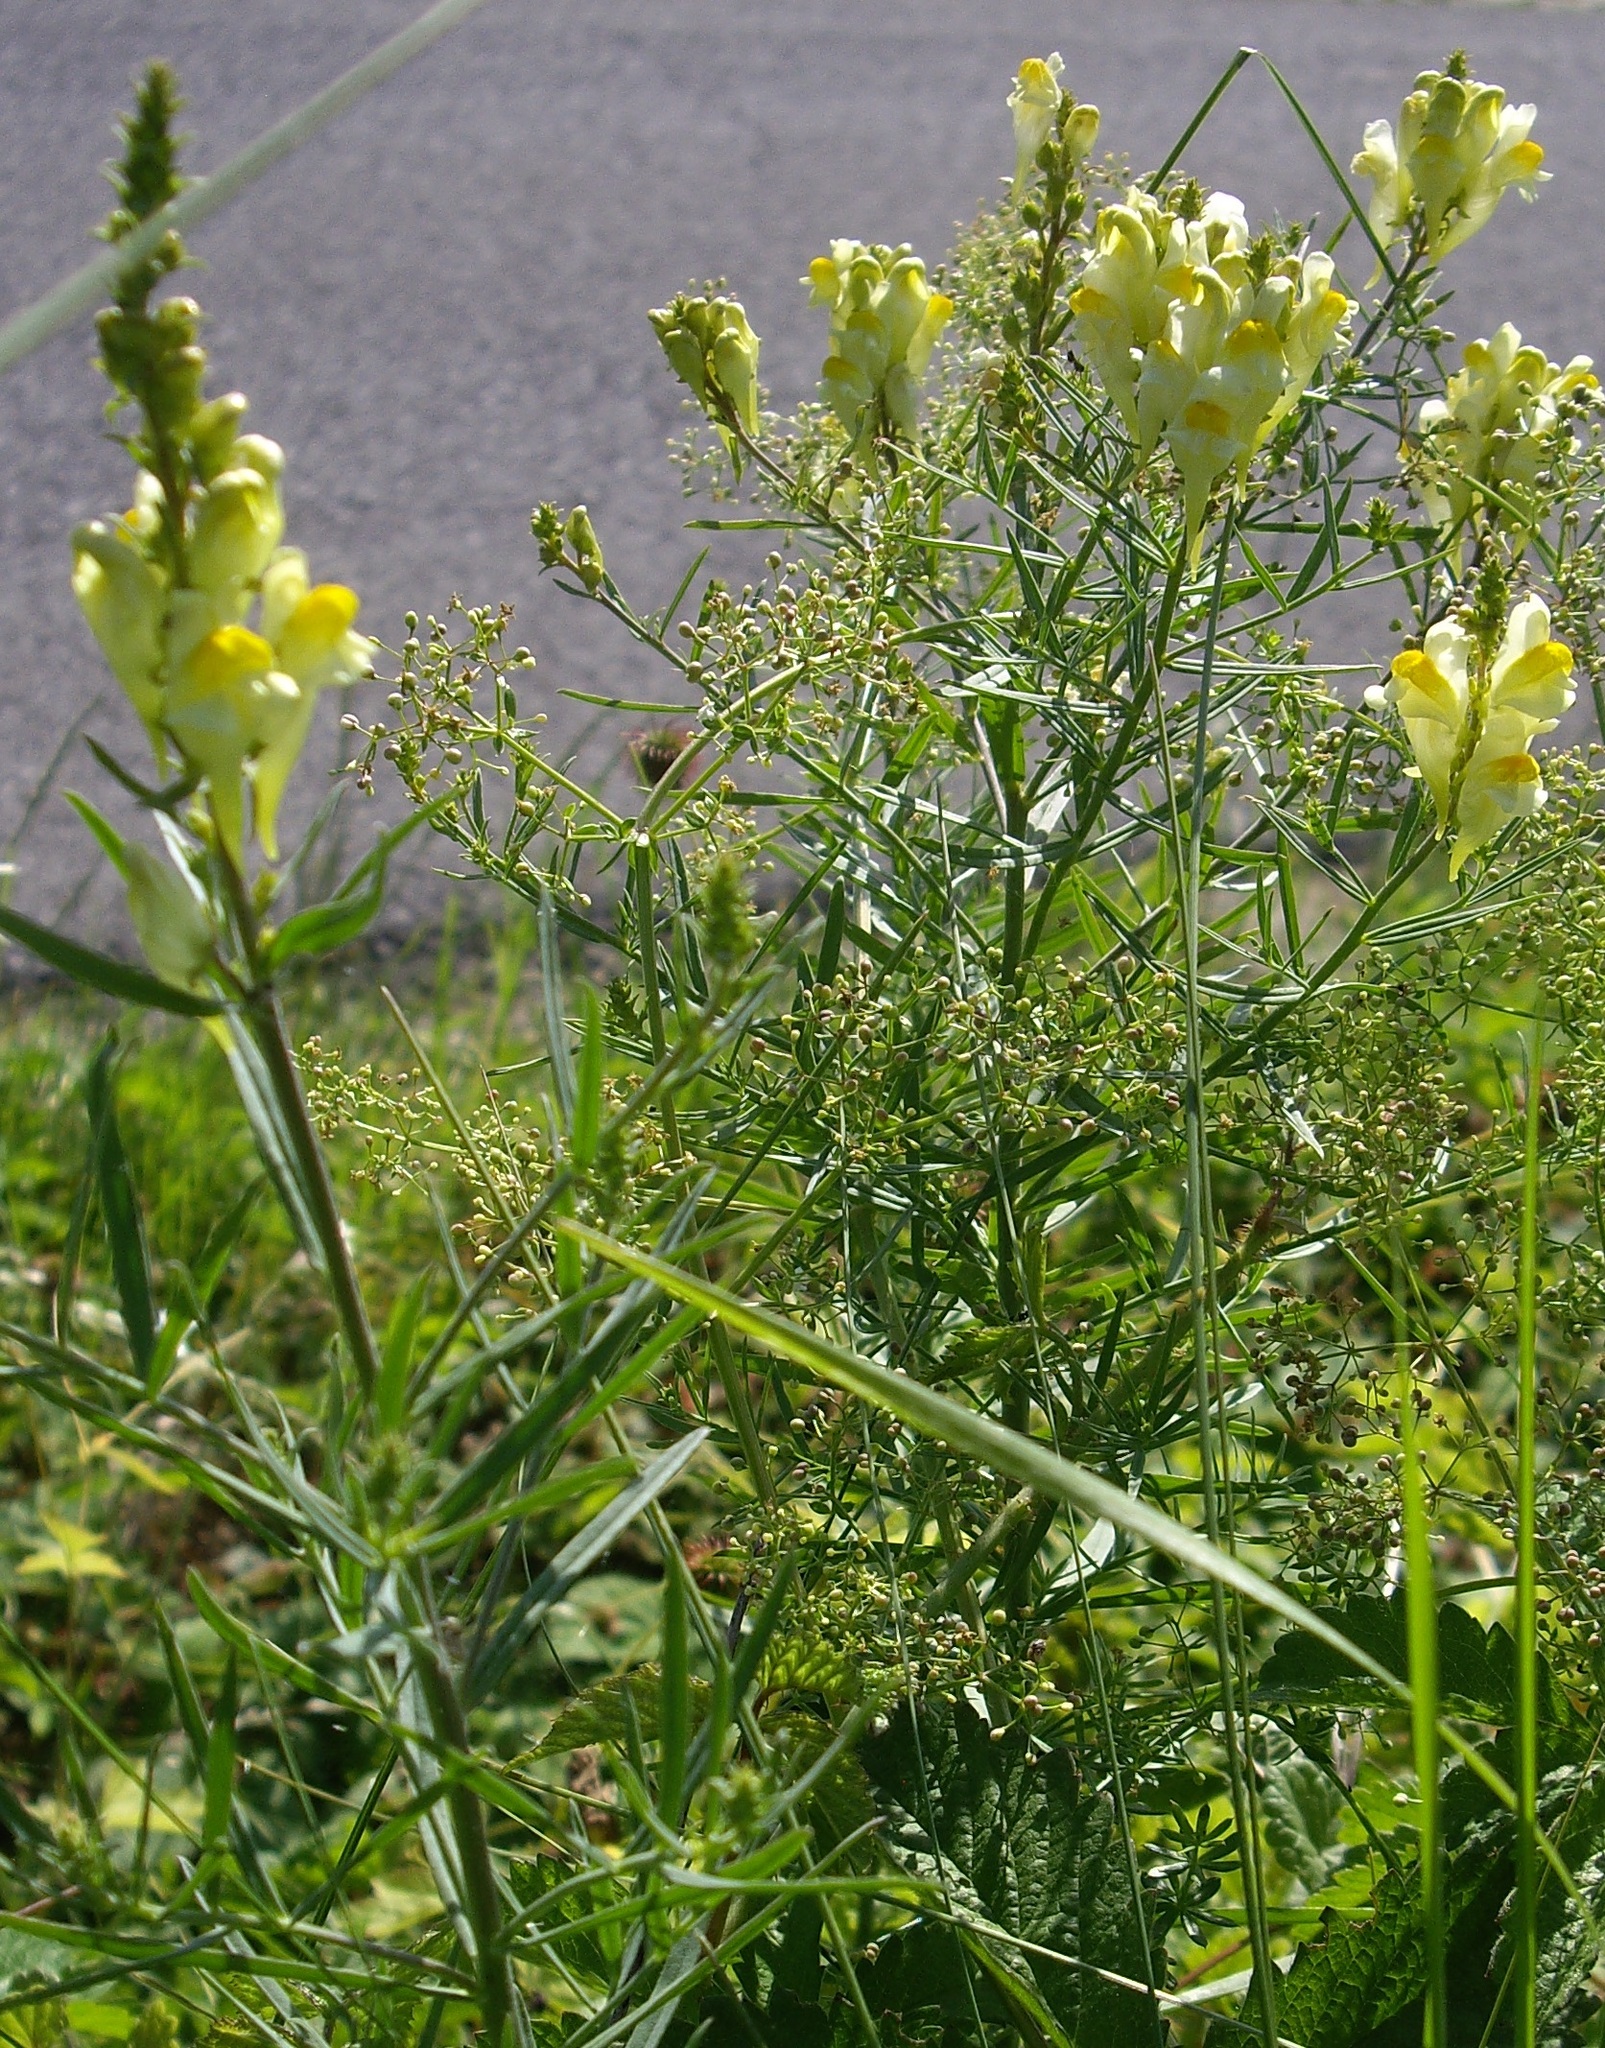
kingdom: Plantae
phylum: Tracheophyta
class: Magnoliopsida
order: Lamiales
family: Plantaginaceae
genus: Linaria
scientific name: Linaria vulgaris
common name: Butter and eggs
